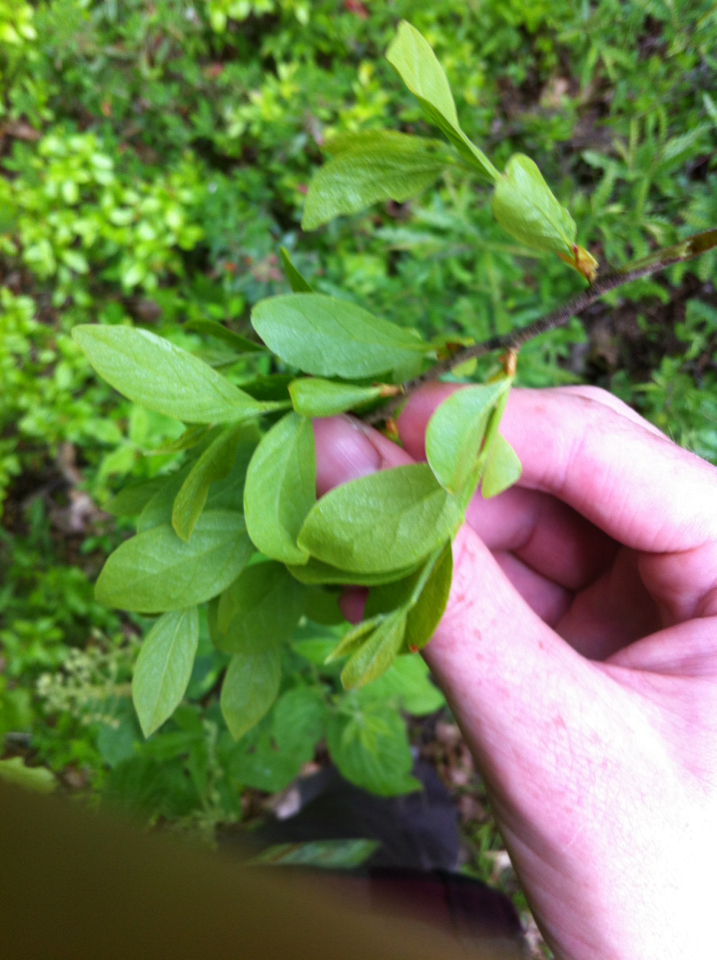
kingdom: Plantae
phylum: Tracheophyta
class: Magnoliopsida
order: Ericales
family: Ericaceae
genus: Gaylussacia
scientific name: Gaylussacia baccata
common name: Black huckleberry
